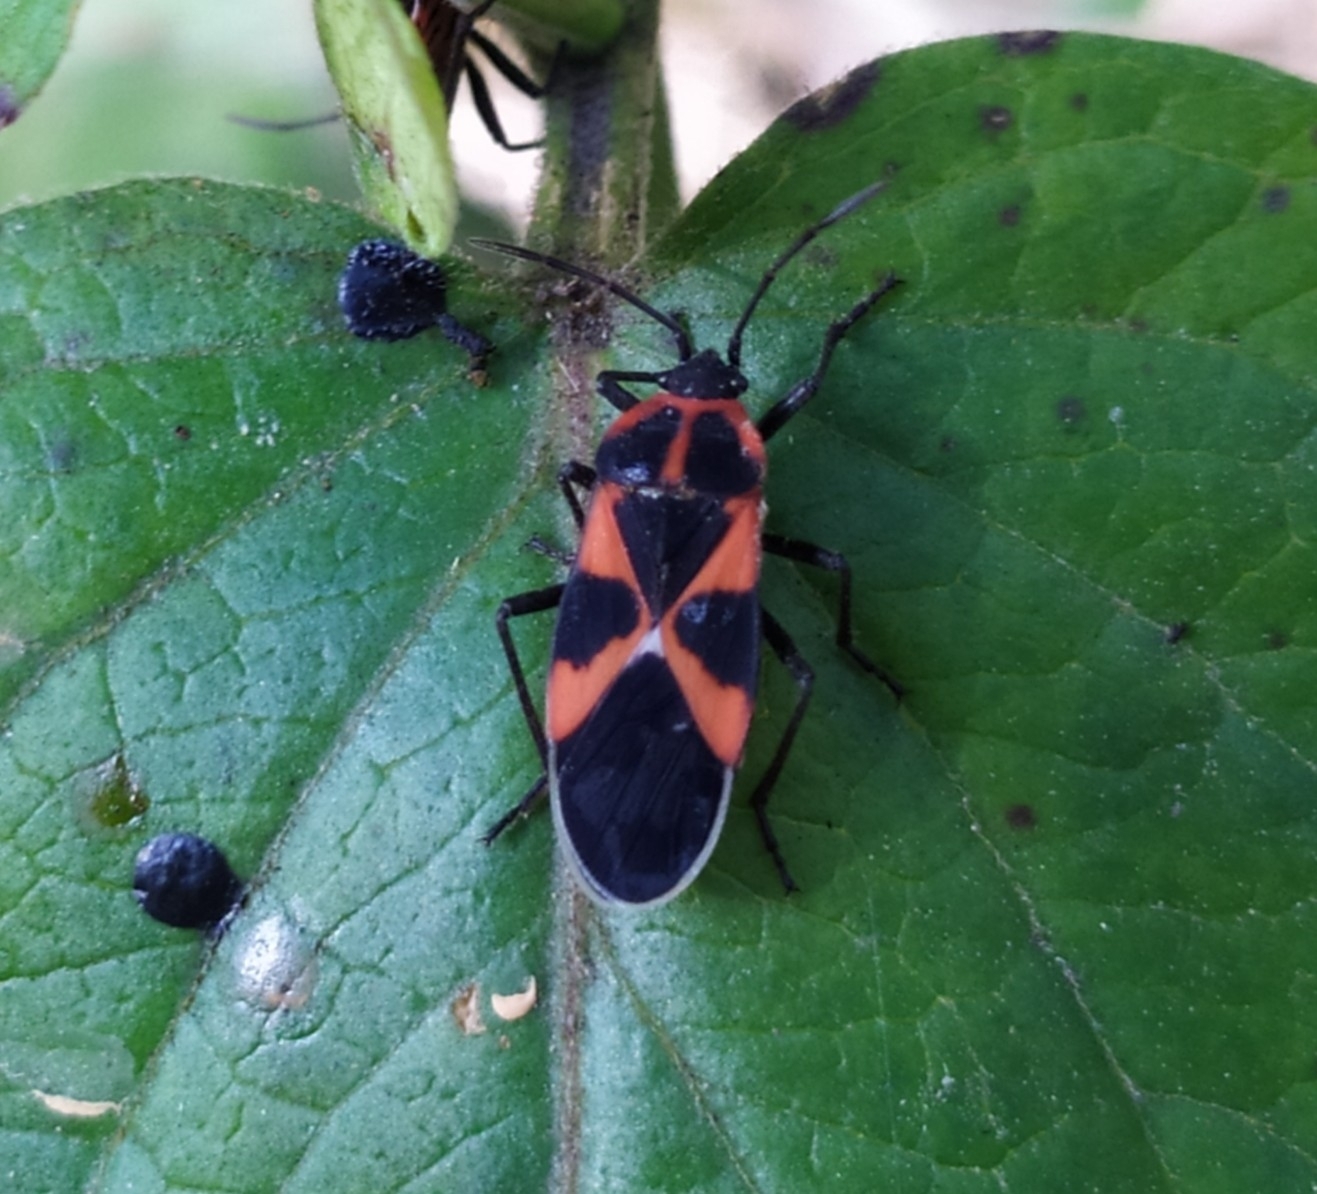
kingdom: Animalia
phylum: Arthropoda
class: Insecta
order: Hemiptera
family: Lygaeidae
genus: Tropidothorax
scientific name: Tropidothorax leucopterus
